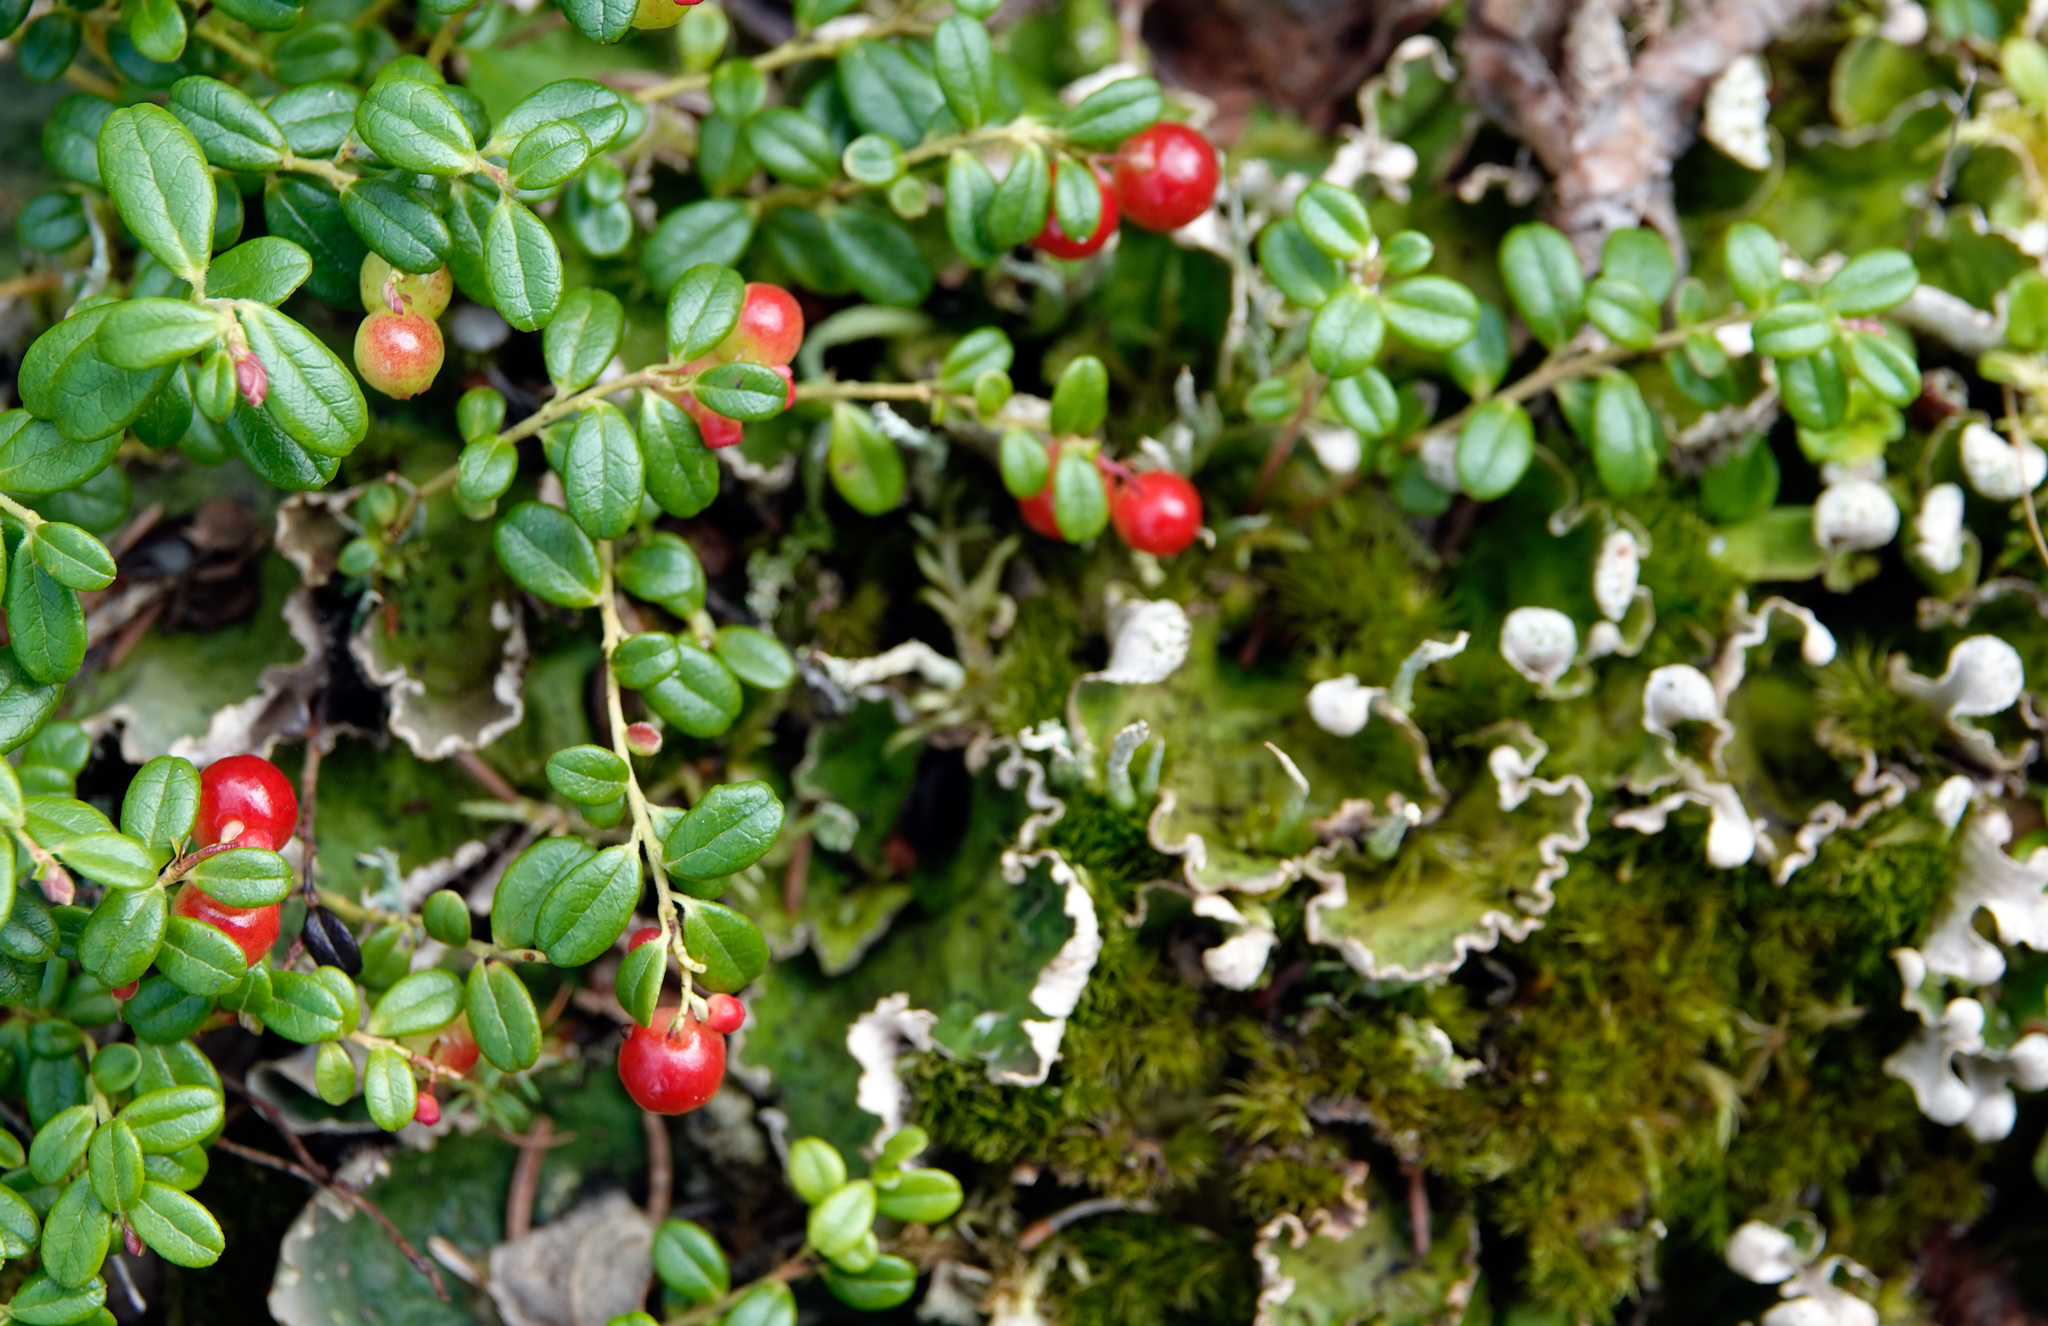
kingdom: Plantae
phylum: Tracheophyta
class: Magnoliopsida
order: Ericales
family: Ericaceae
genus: Vaccinium
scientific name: Vaccinium vitis-idaea
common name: Cowberry
